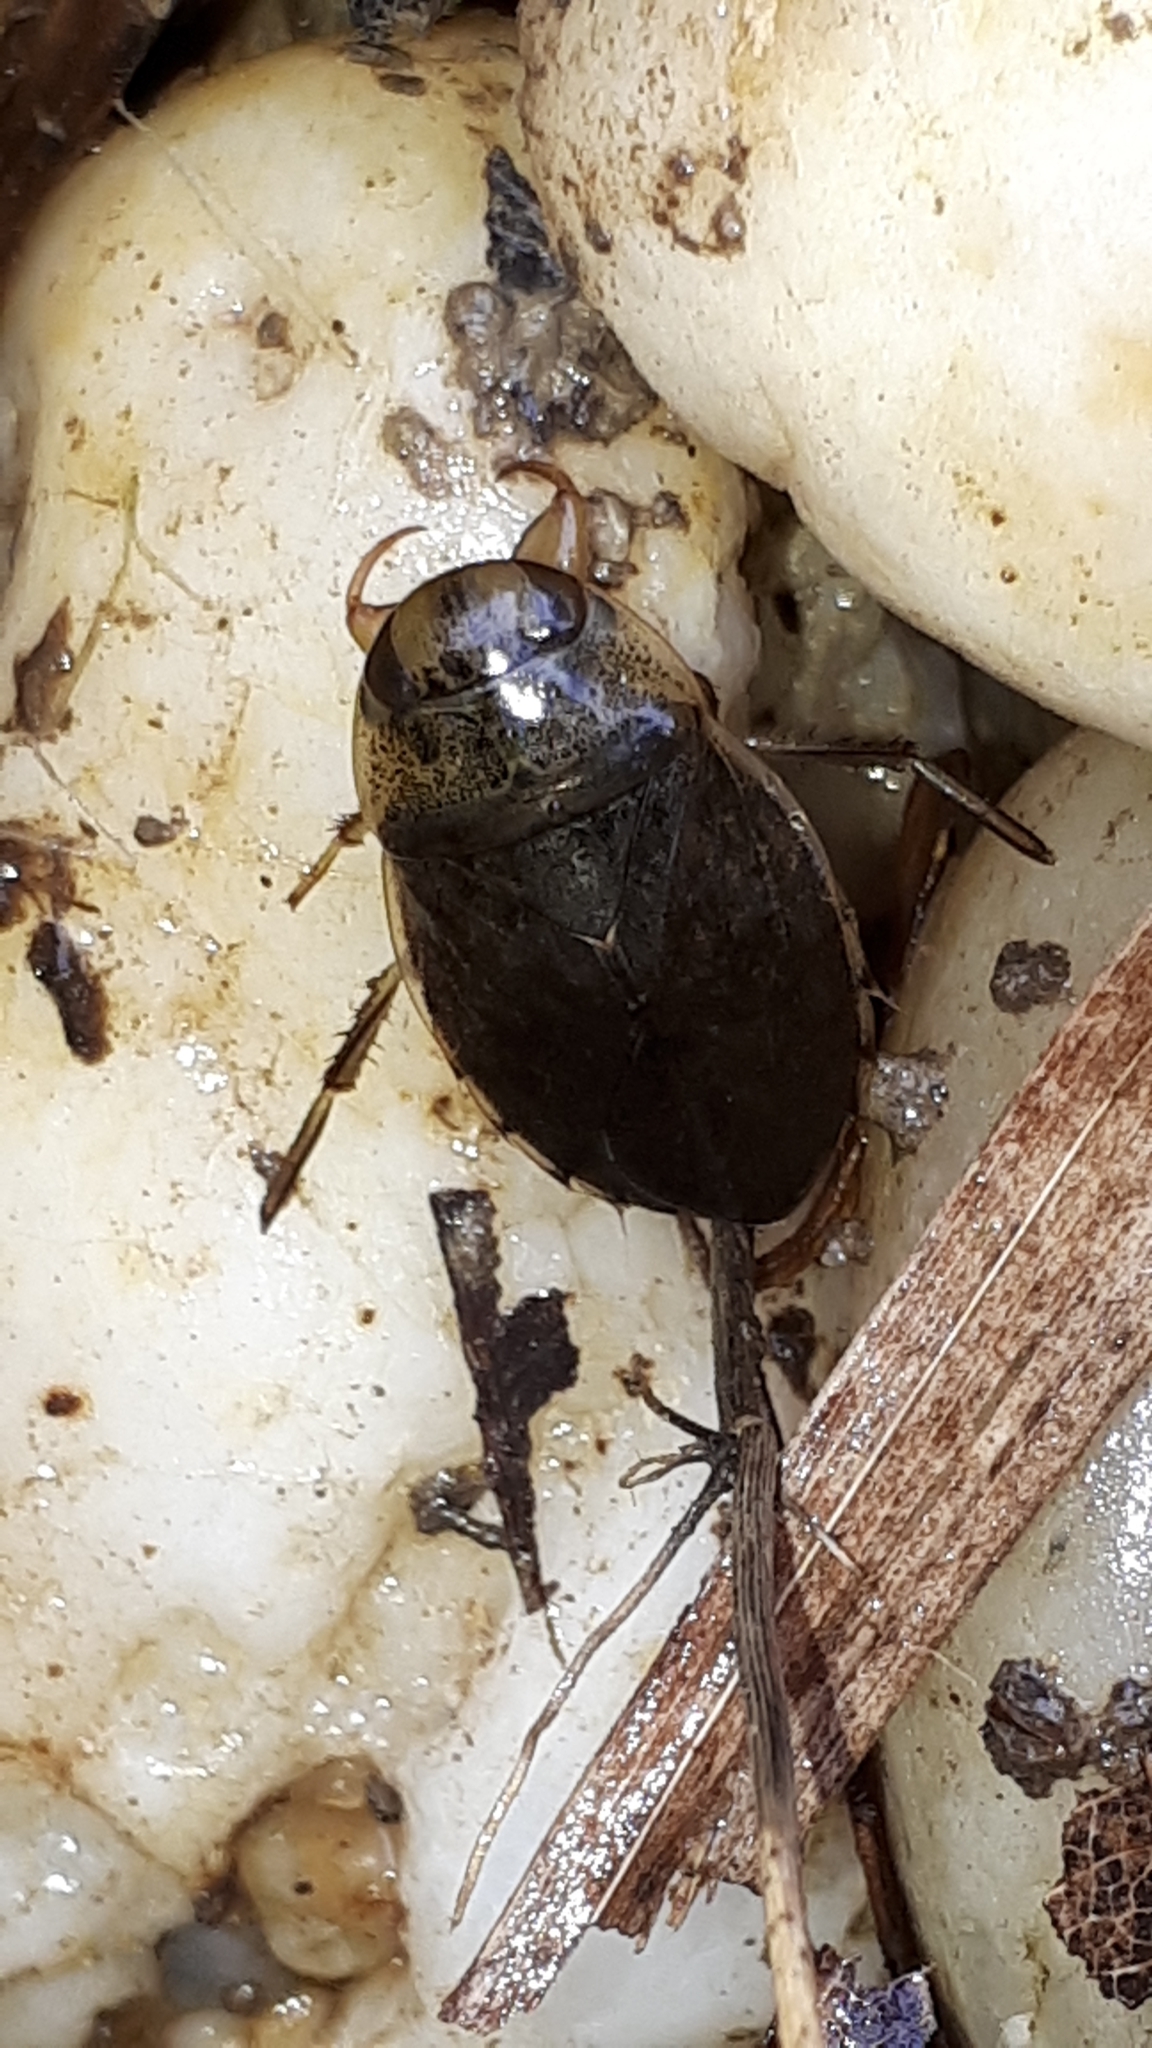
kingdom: Animalia
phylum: Arthropoda
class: Insecta
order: Hemiptera
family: Naucoridae
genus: Ilyocoris
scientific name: Ilyocoris cimicoides
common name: Saucer bugs
